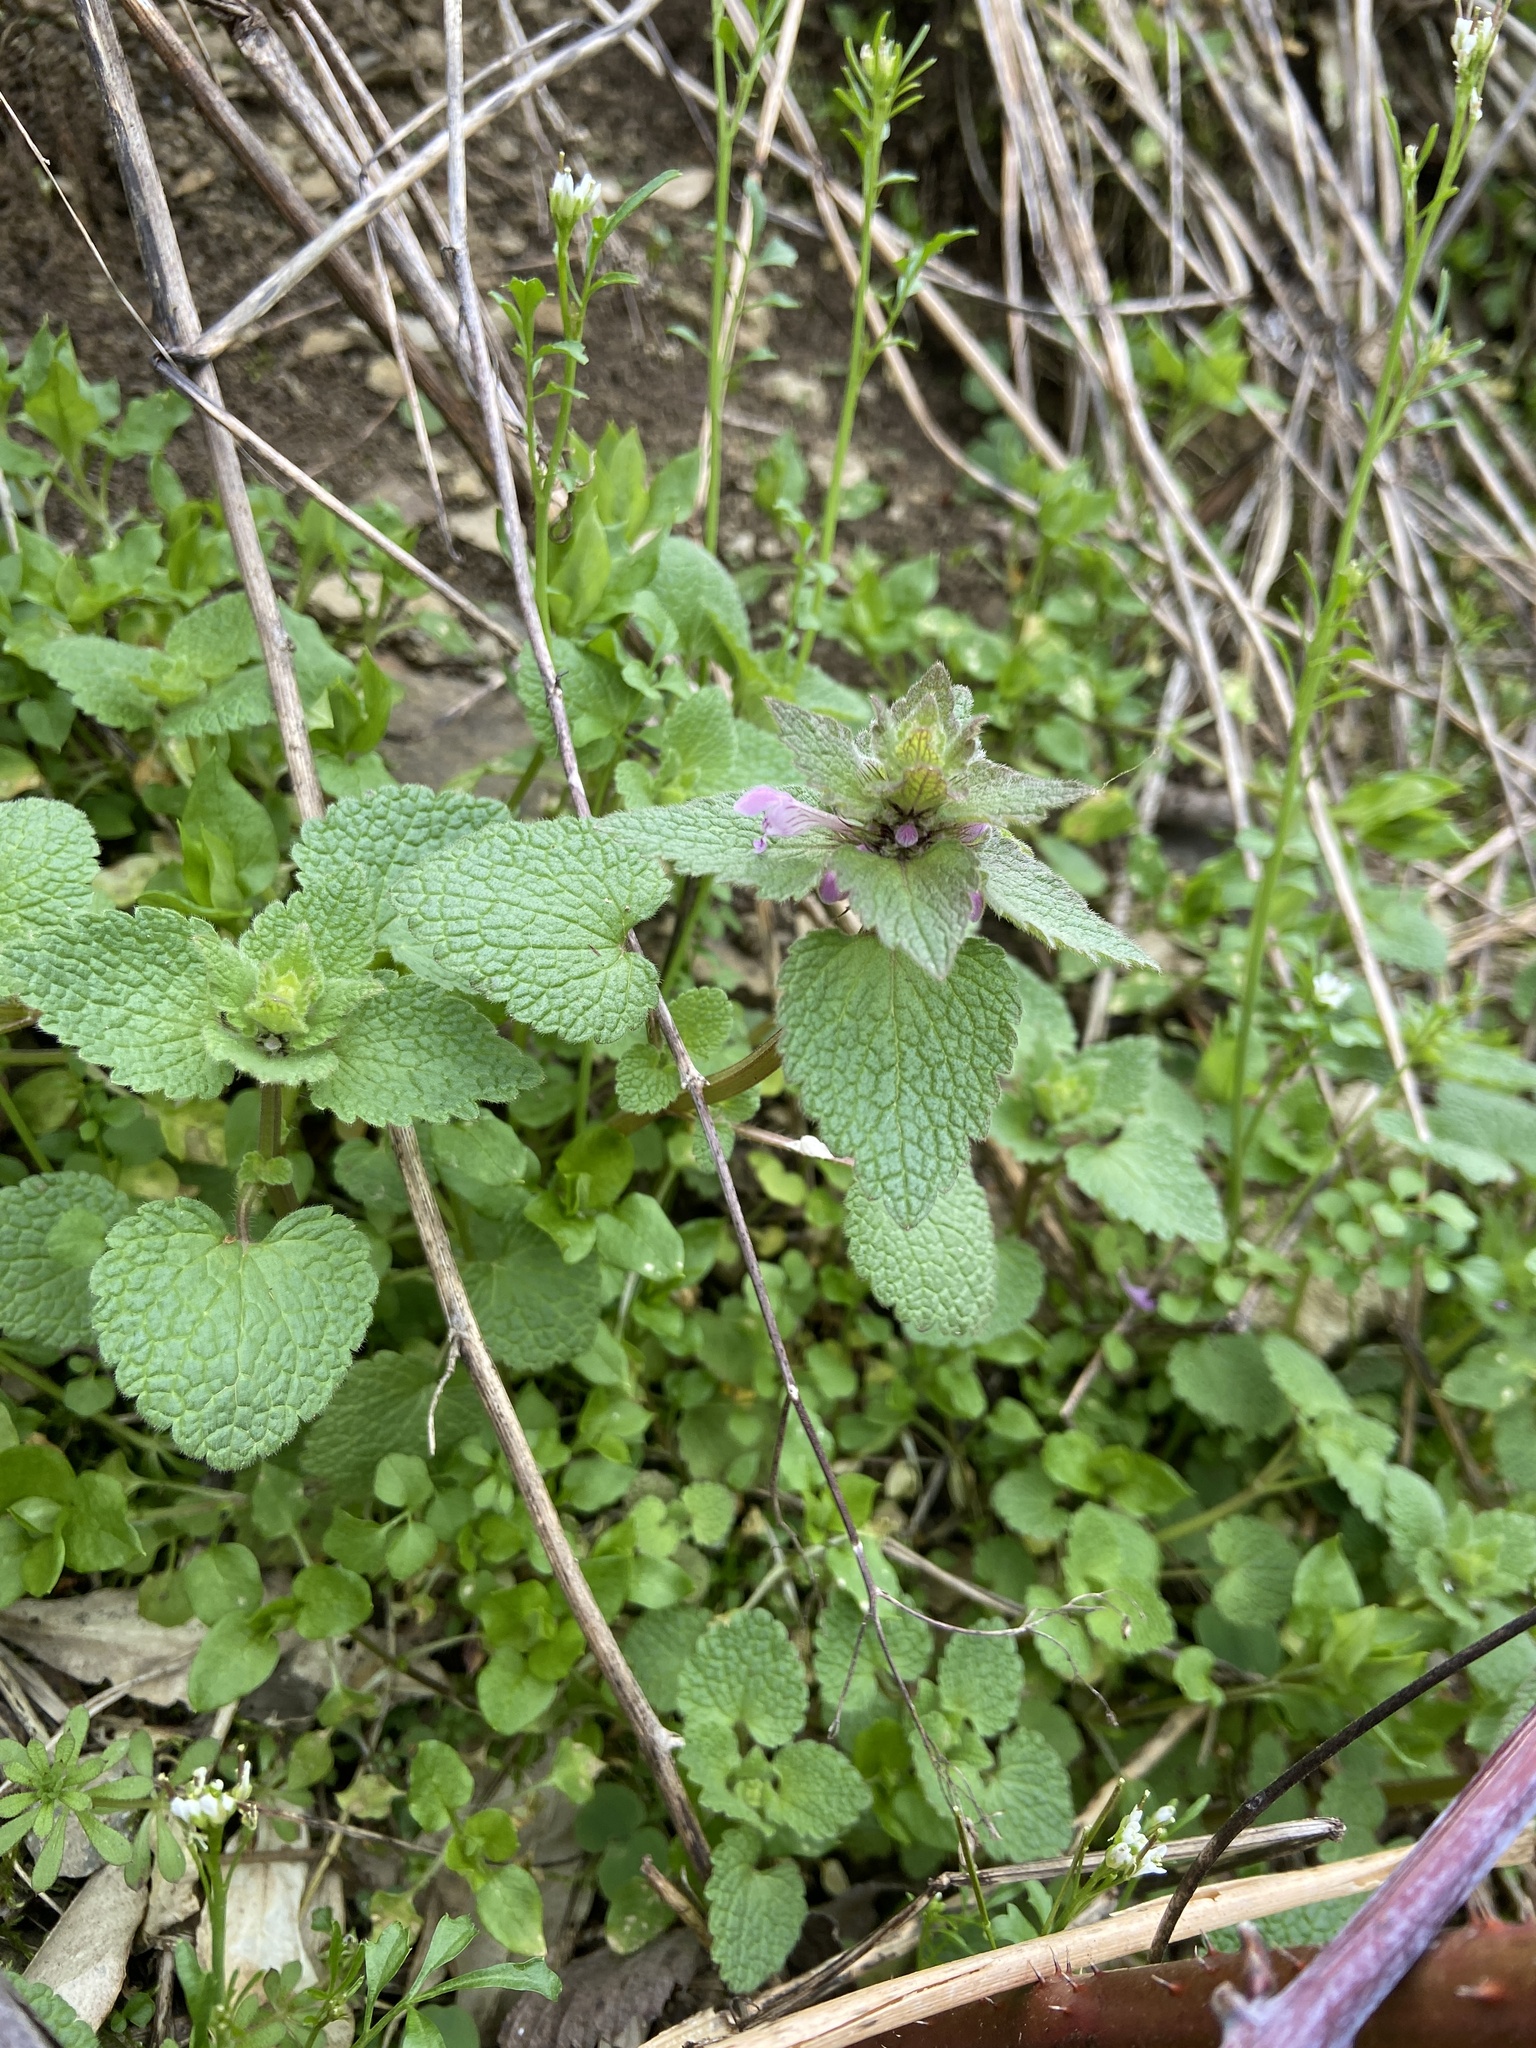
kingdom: Plantae
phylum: Tracheophyta
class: Magnoliopsida
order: Lamiales
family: Lamiaceae
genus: Lamium
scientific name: Lamium purpureum
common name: Red dead-nettle
